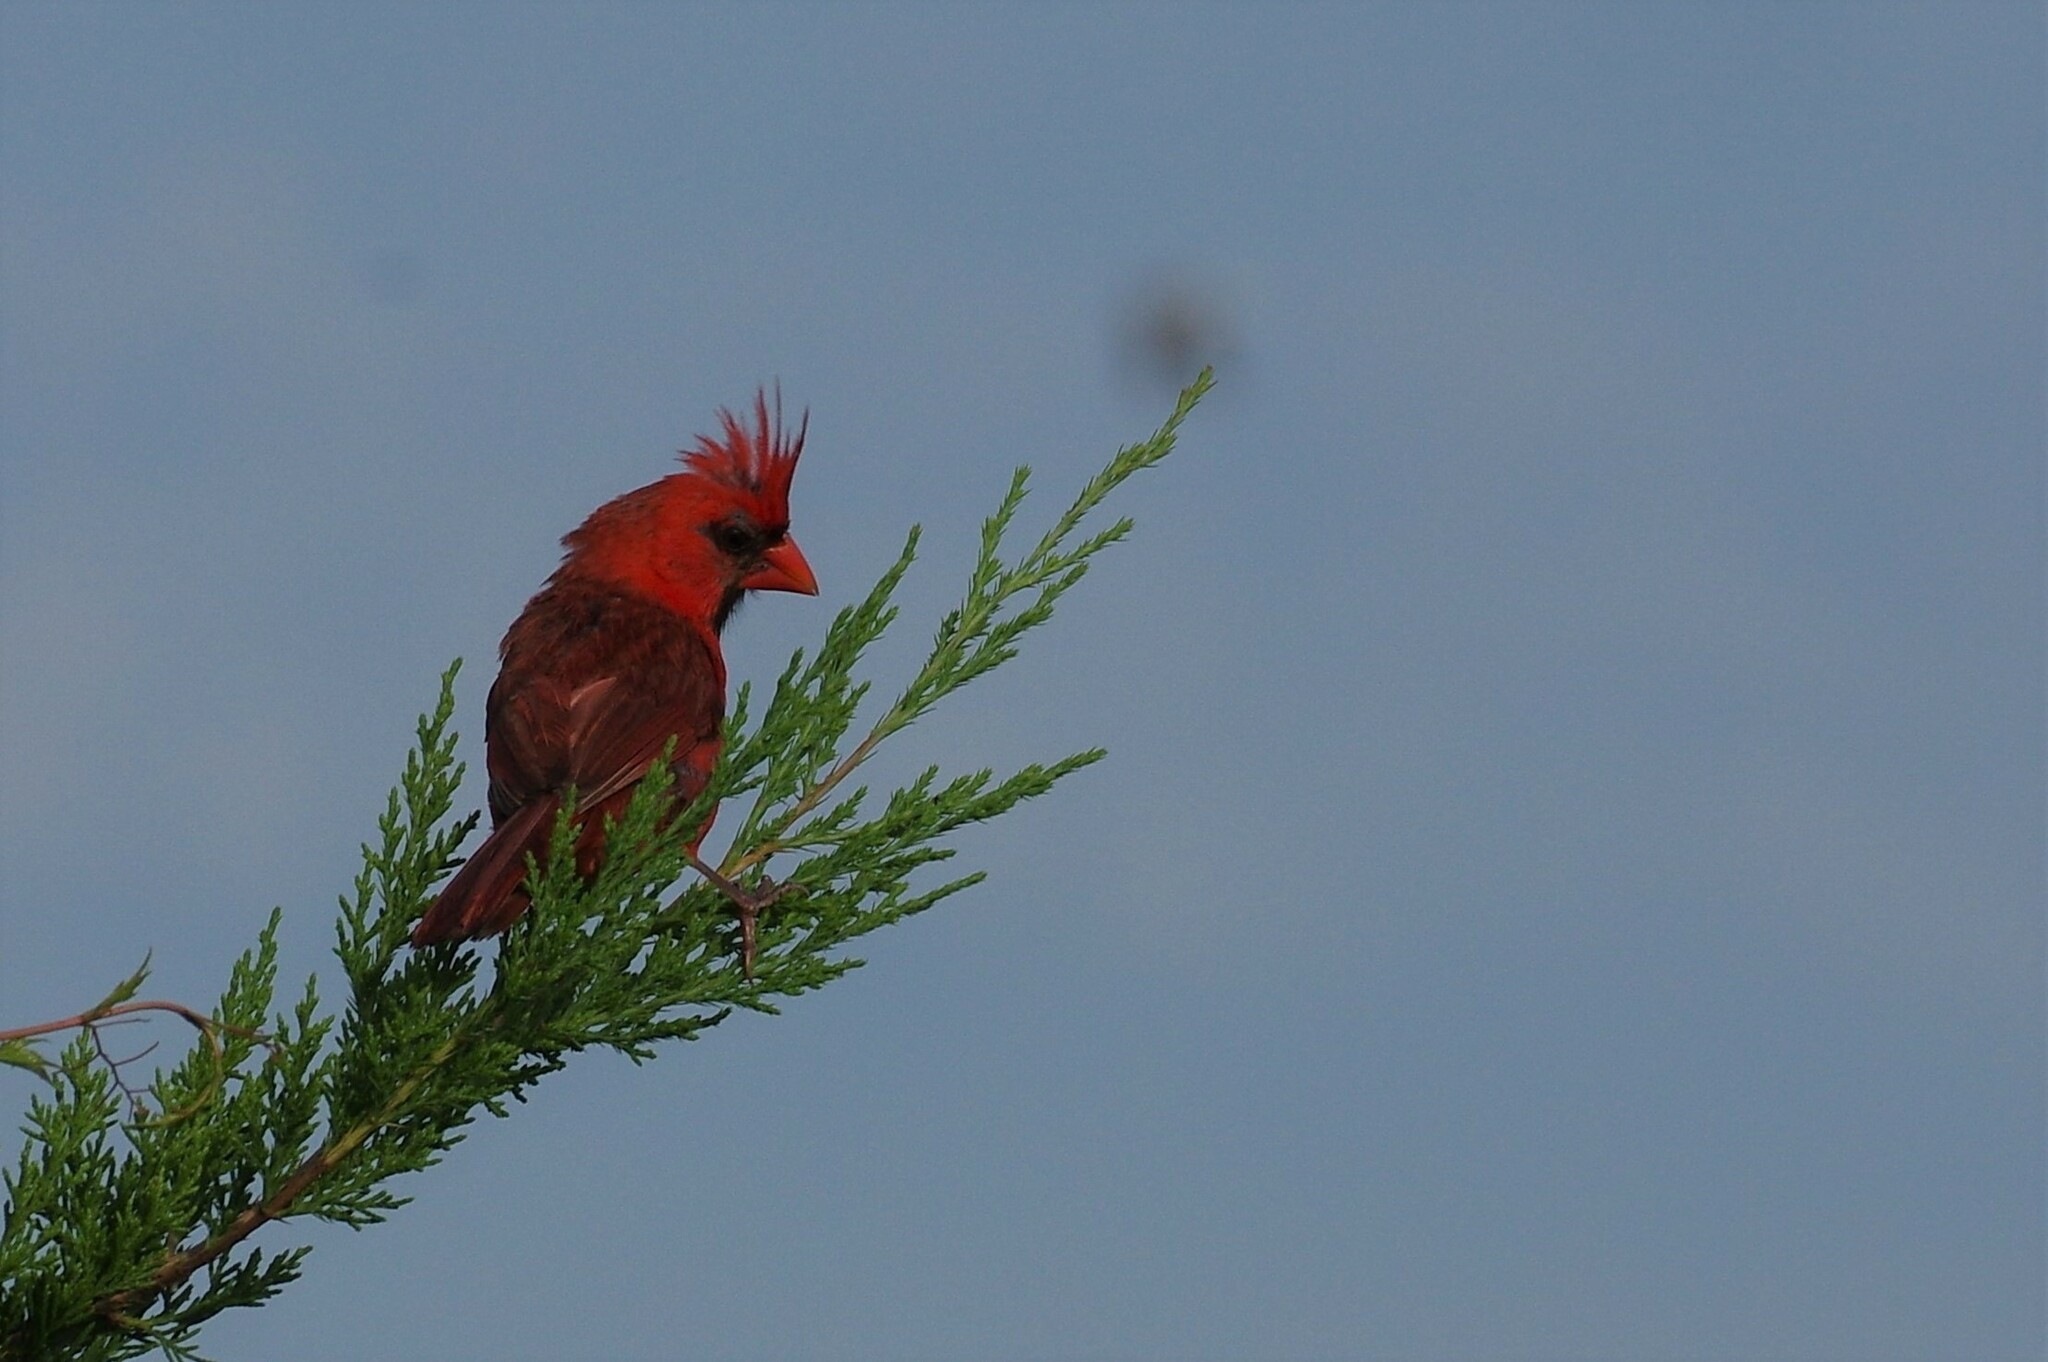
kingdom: Animalia
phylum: Chordata
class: Aves
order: Passeriformes
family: Cardinalidae
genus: Cardinalis
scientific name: Cardinalis cardinalis
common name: Northern cardinal
